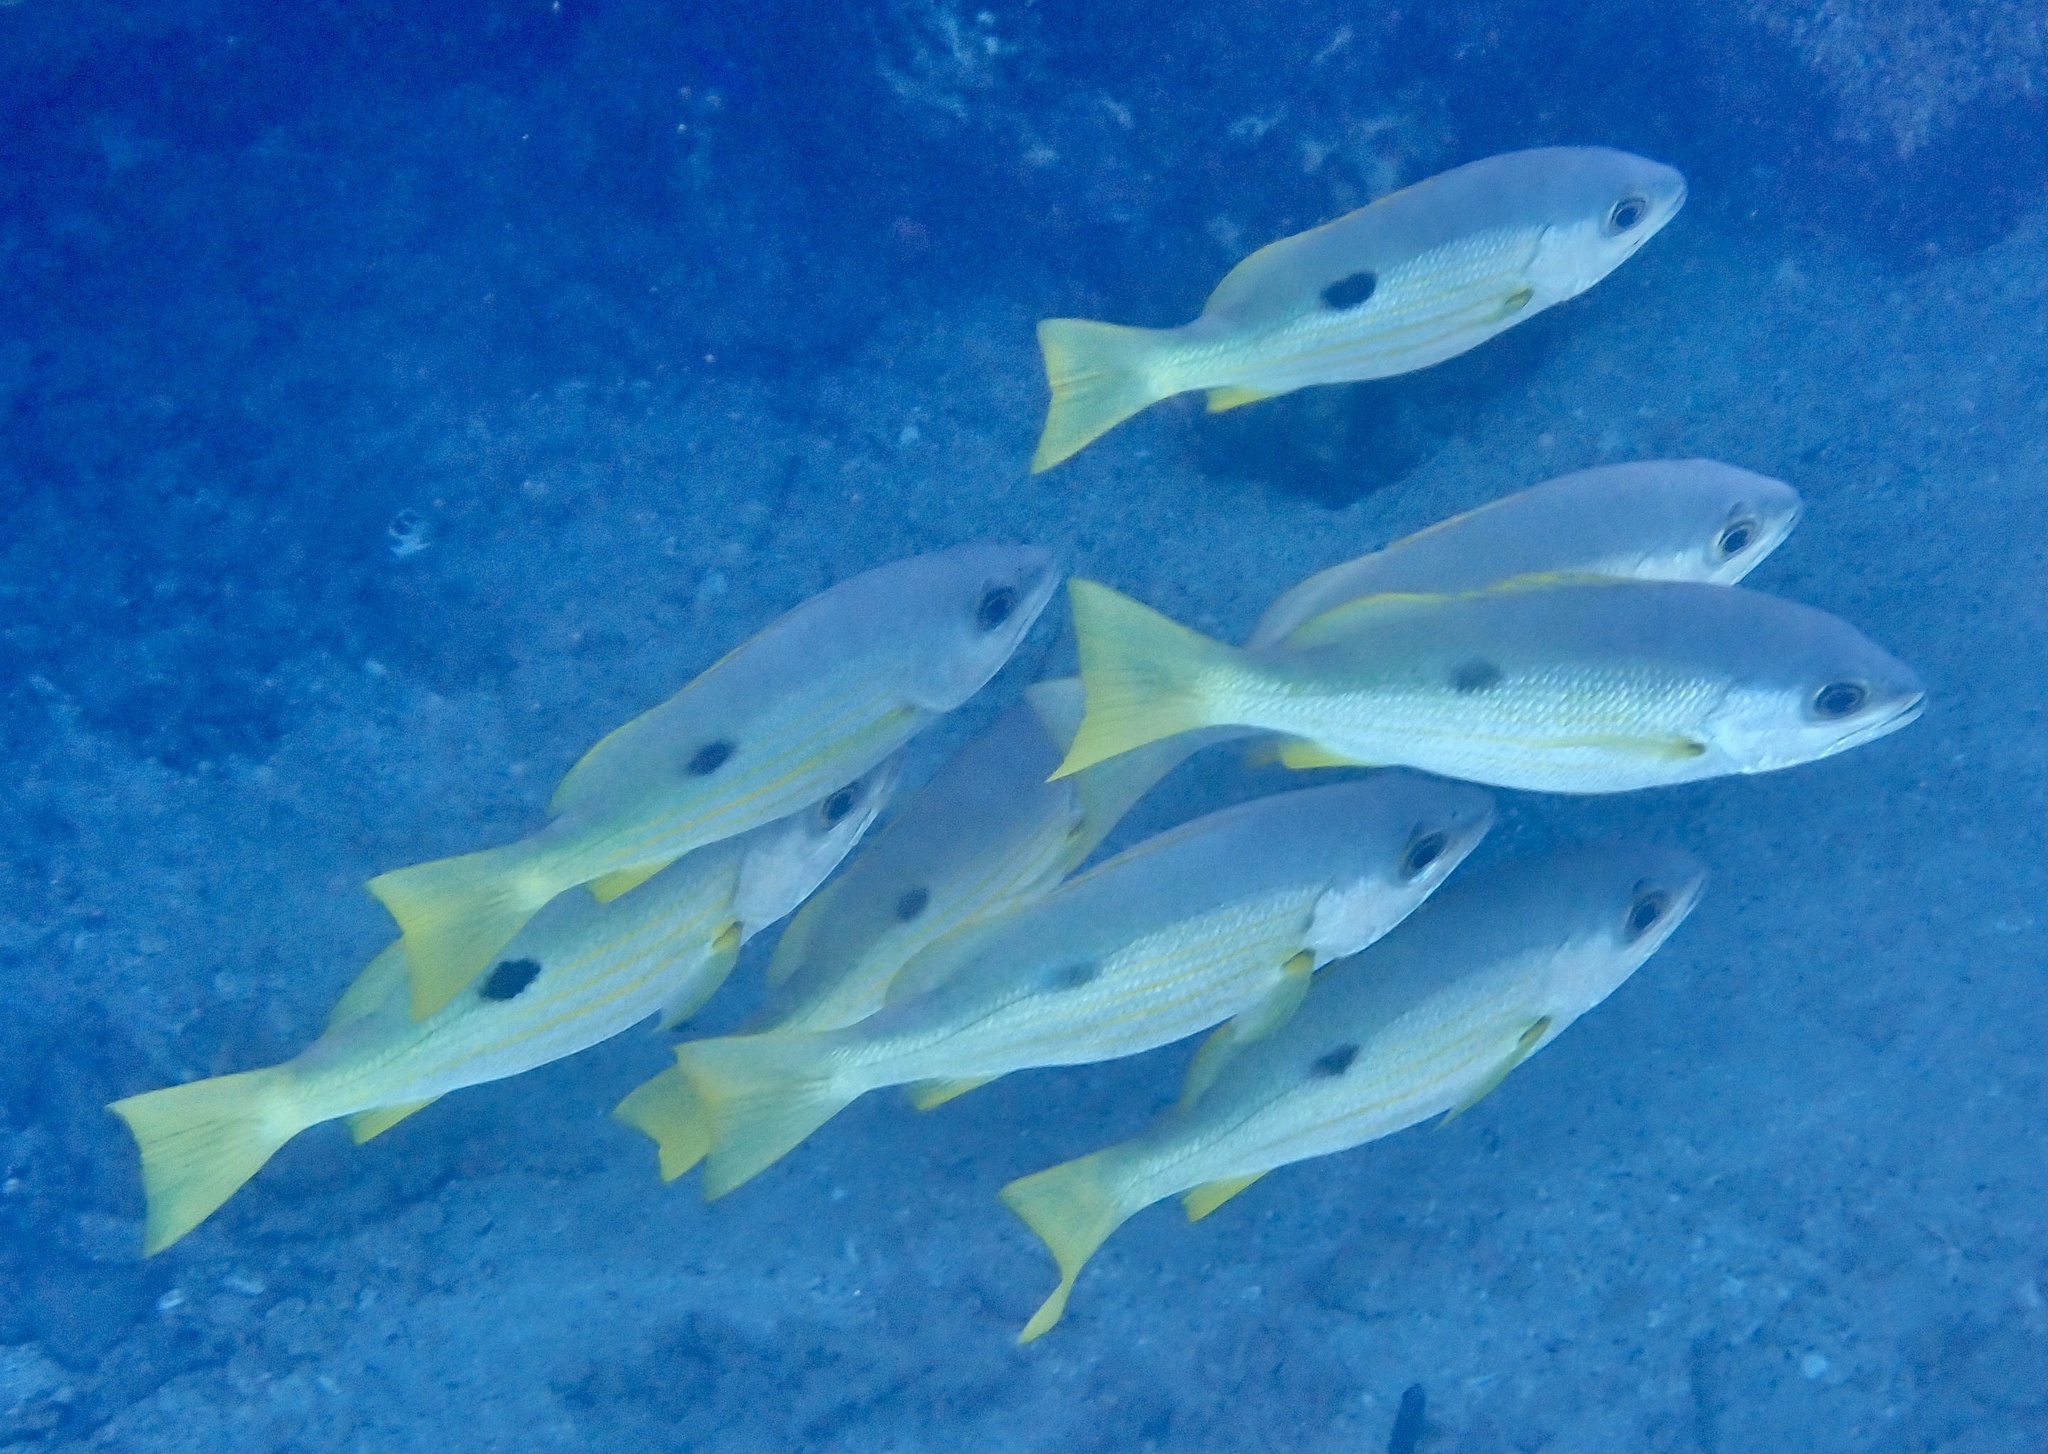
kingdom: Animalia
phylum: Chordata
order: Perciformes
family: Lutjanidae
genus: Lutjanus
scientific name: Lutjanus ehrenbergii
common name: Blackspot snapper
